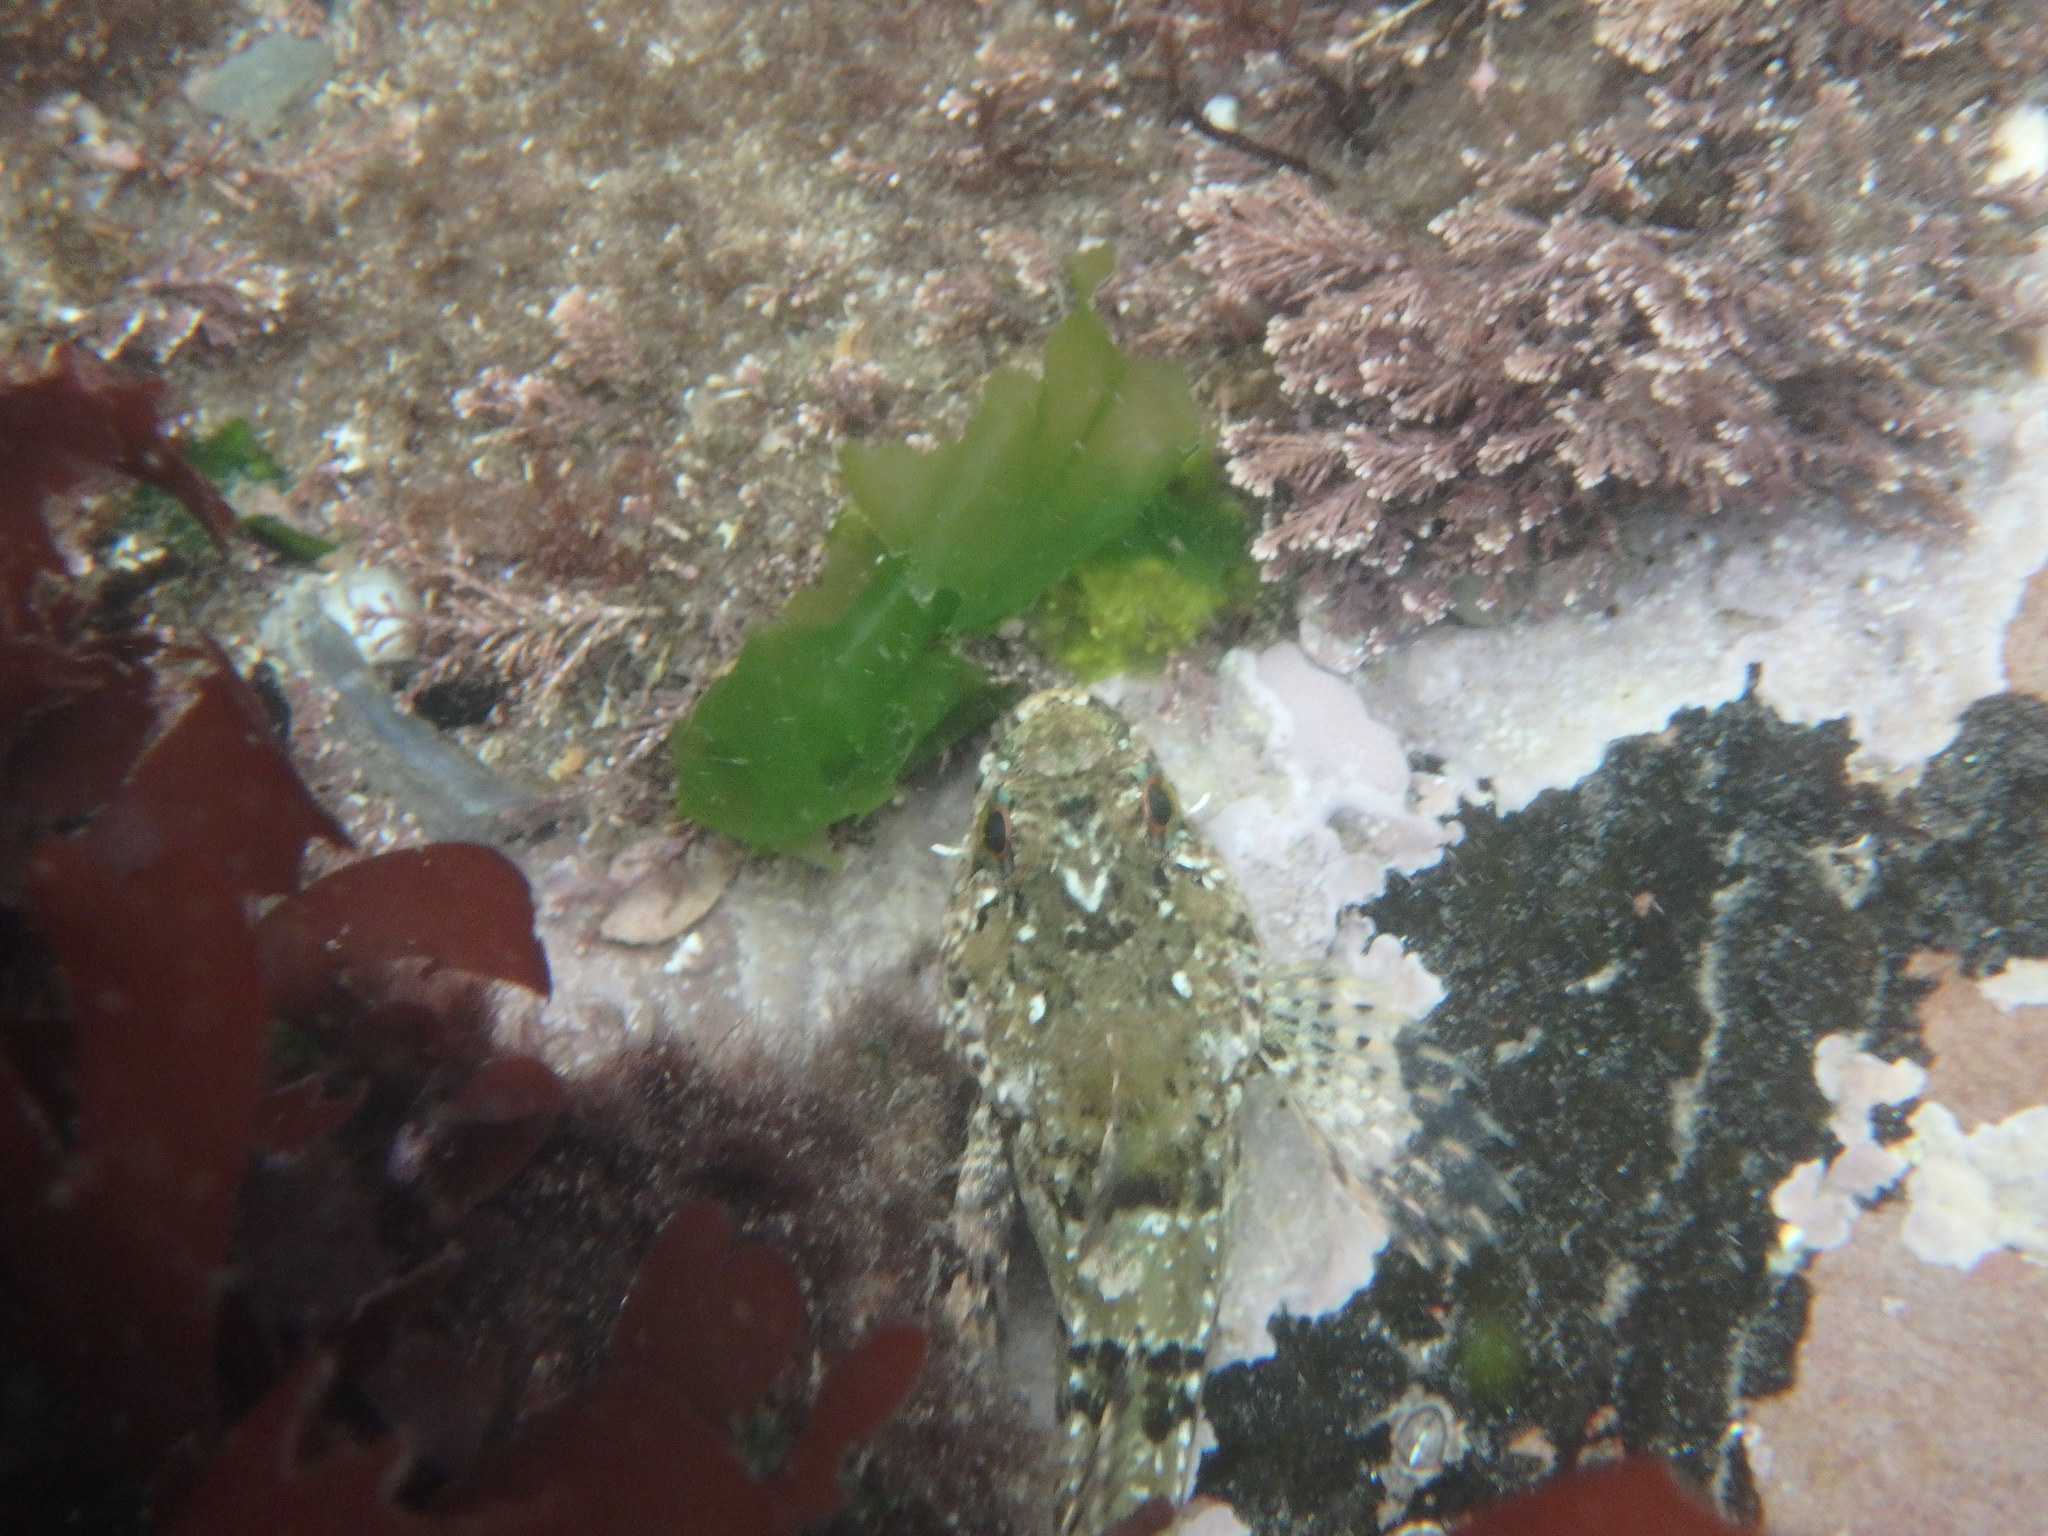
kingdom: Animalia
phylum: Chordata
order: Scorpaeniformes
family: Cottidae
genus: Taurulus
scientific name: Taurulus bubalis
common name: Sea scorpion
